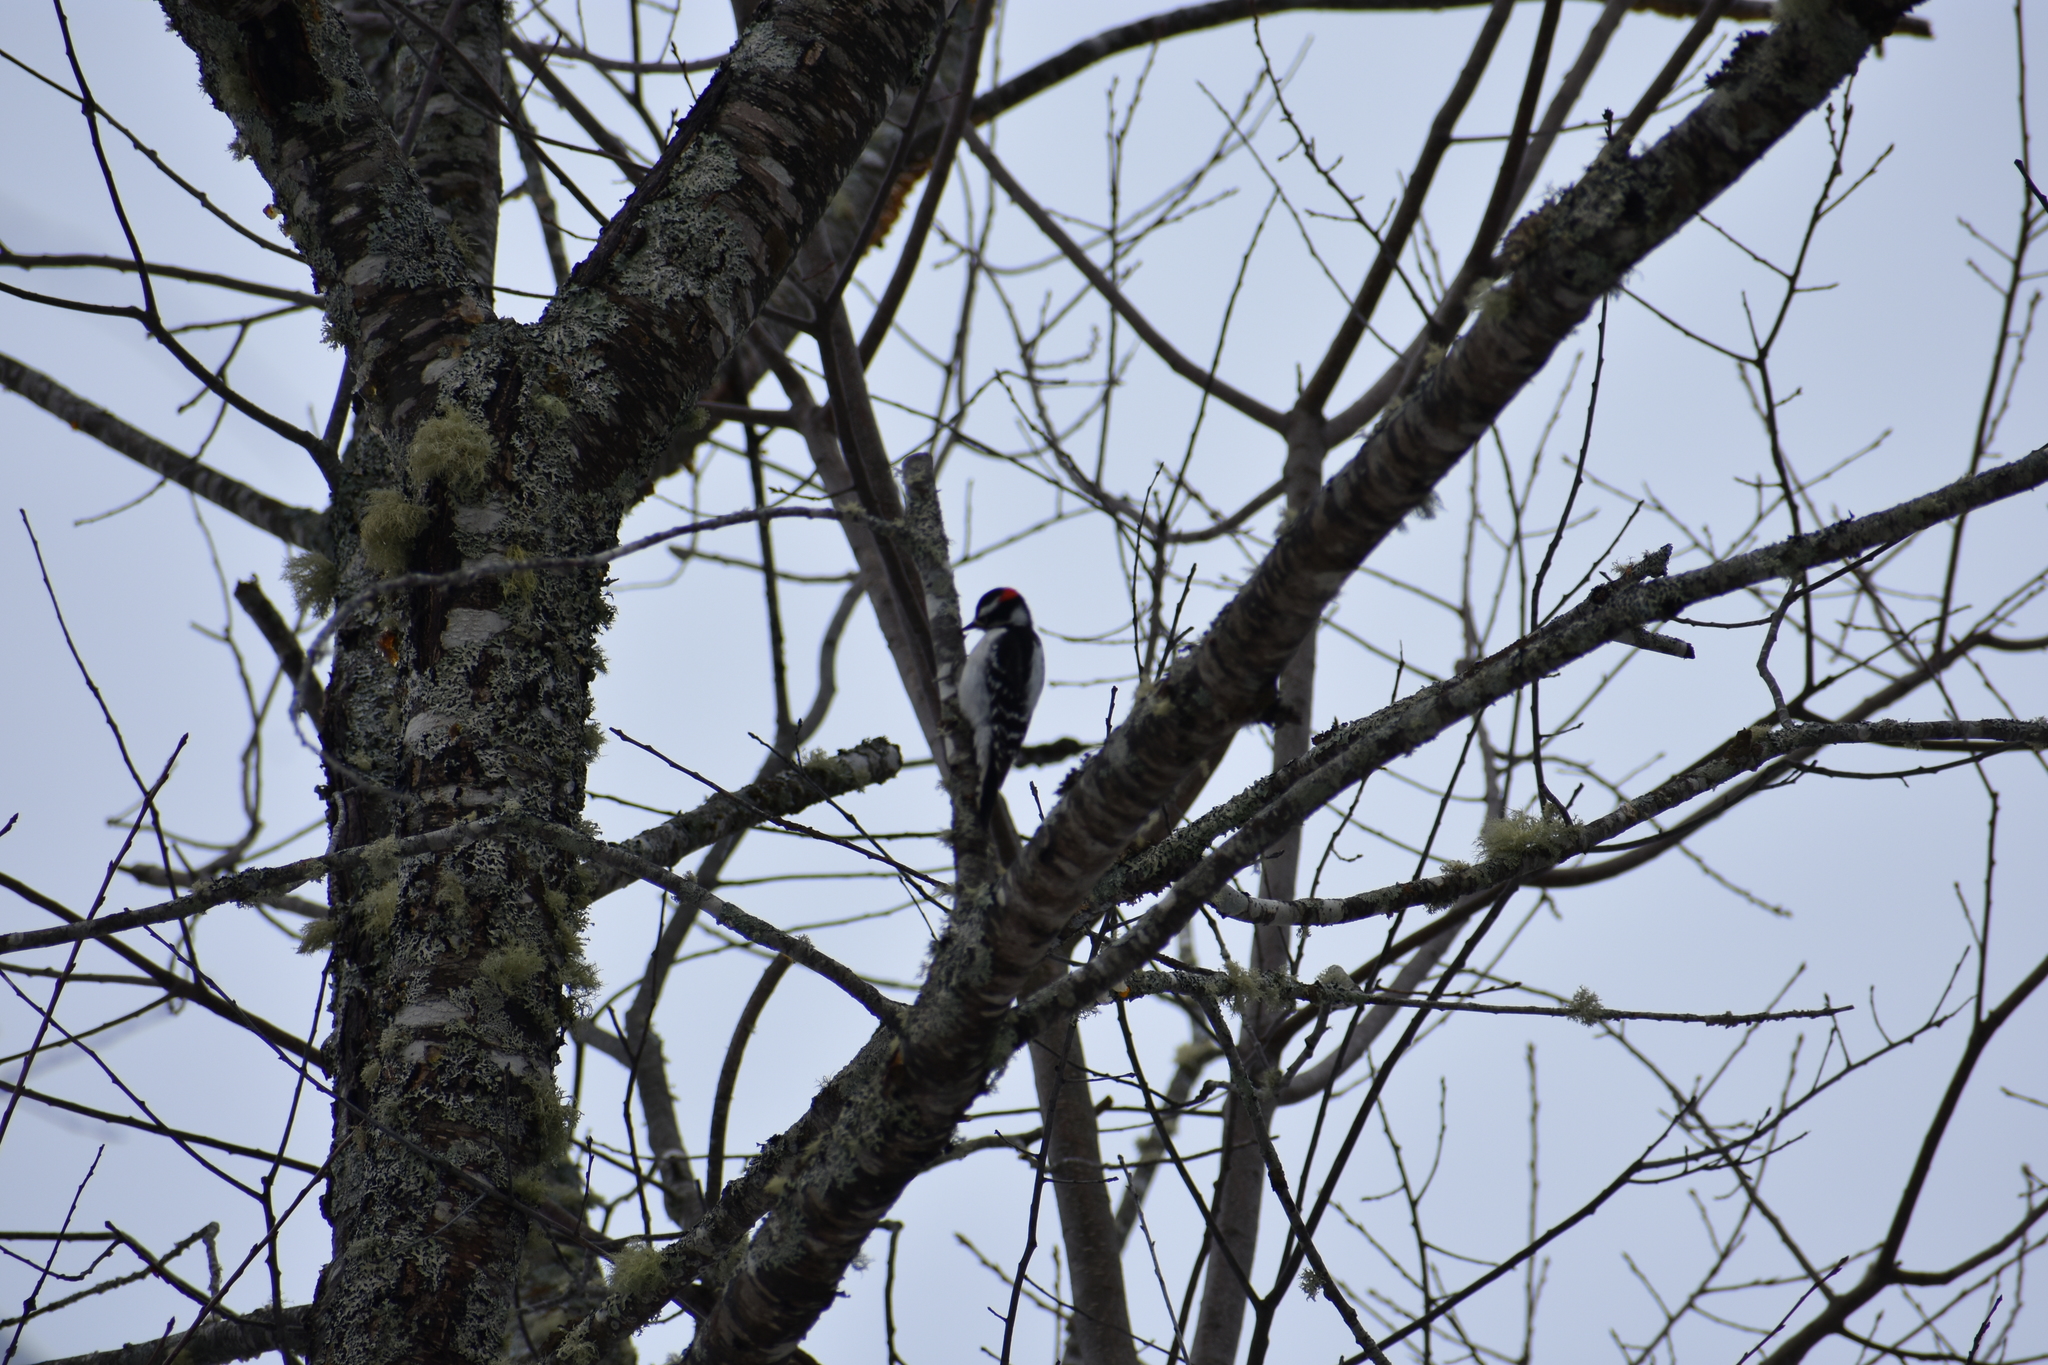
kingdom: Animalia
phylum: Chordata
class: Aves
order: Piciformes
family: Picidae
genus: Dryobates
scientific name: Dryobates pubescens
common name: Downy woodpecker
